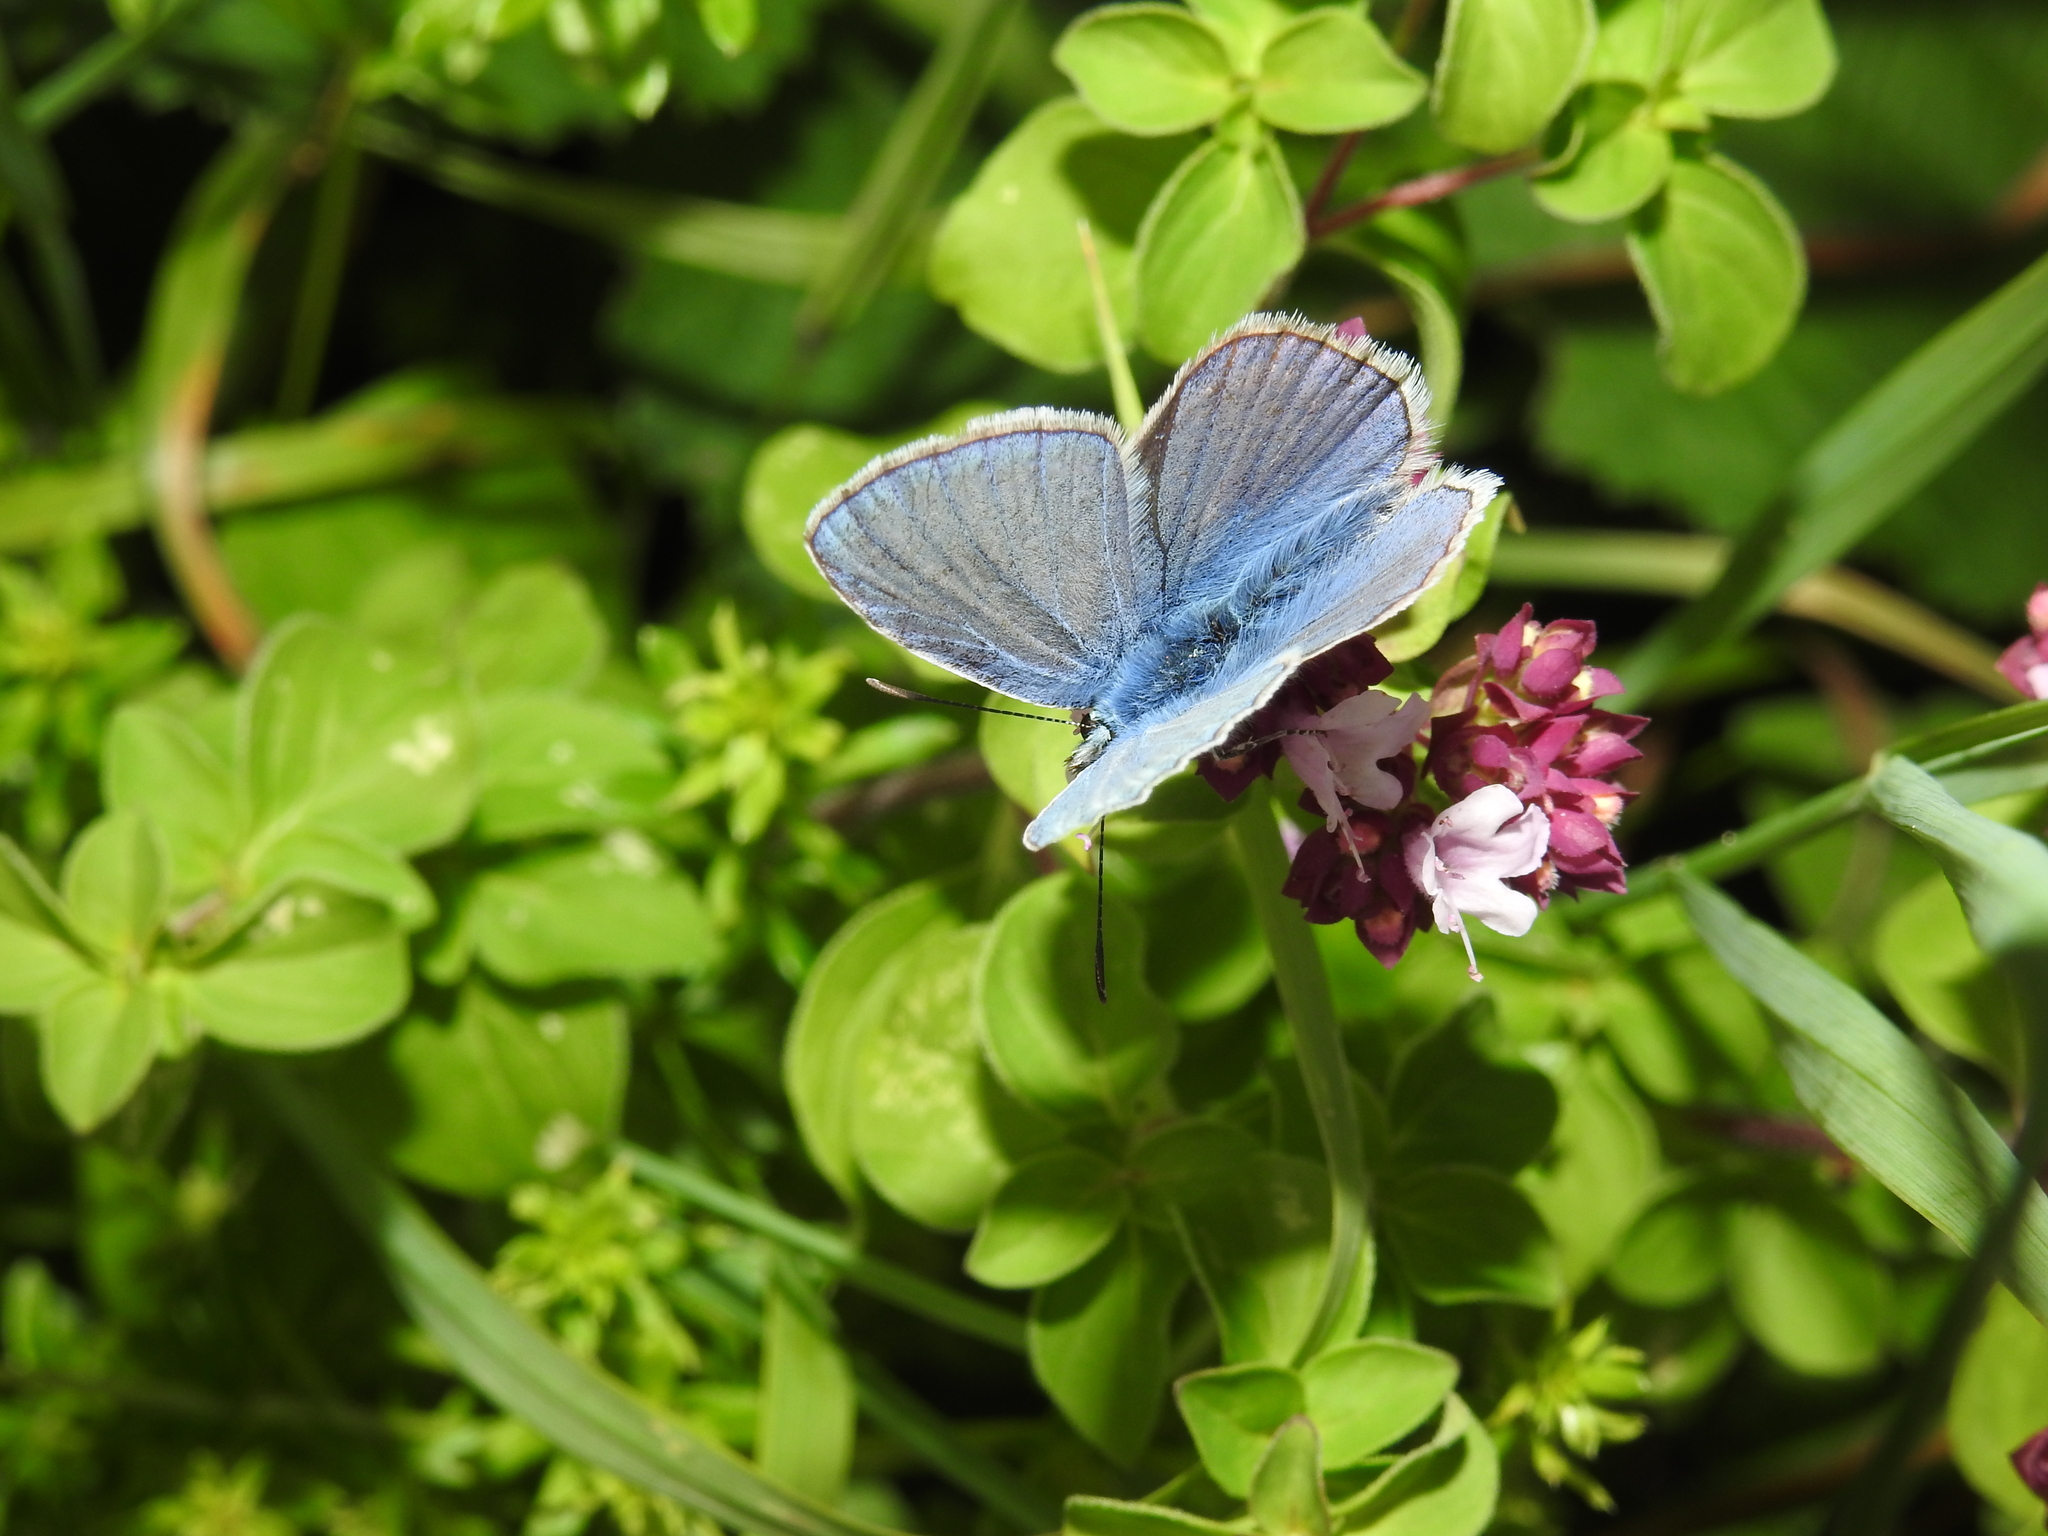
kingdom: Animalia
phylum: Arthropoda
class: Insecta
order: Lepidoptera
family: Lycaenidae
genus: Polyommatus
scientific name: Polyommatus icarus
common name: Common blue
